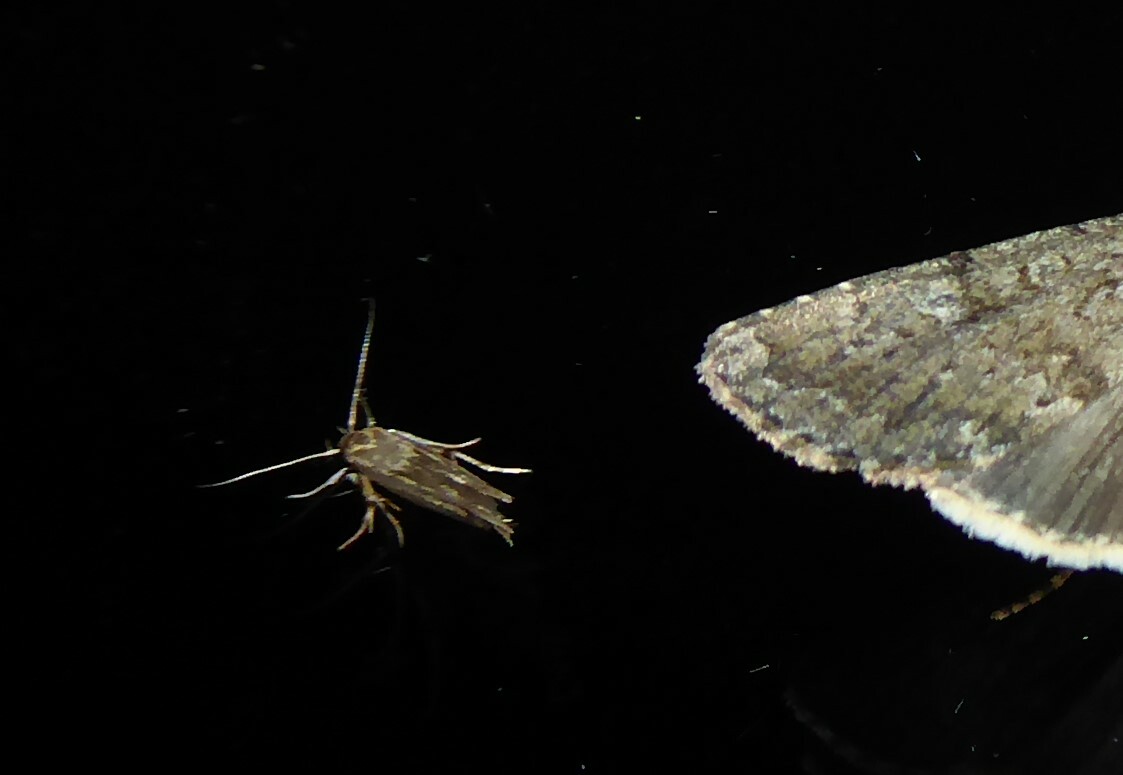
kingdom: Animalia
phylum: Arthropoda
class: Insecta
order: Lepidoptera
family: Stathmopodidae
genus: Stathmopoda
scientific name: Stathmopoda plumbiflua
